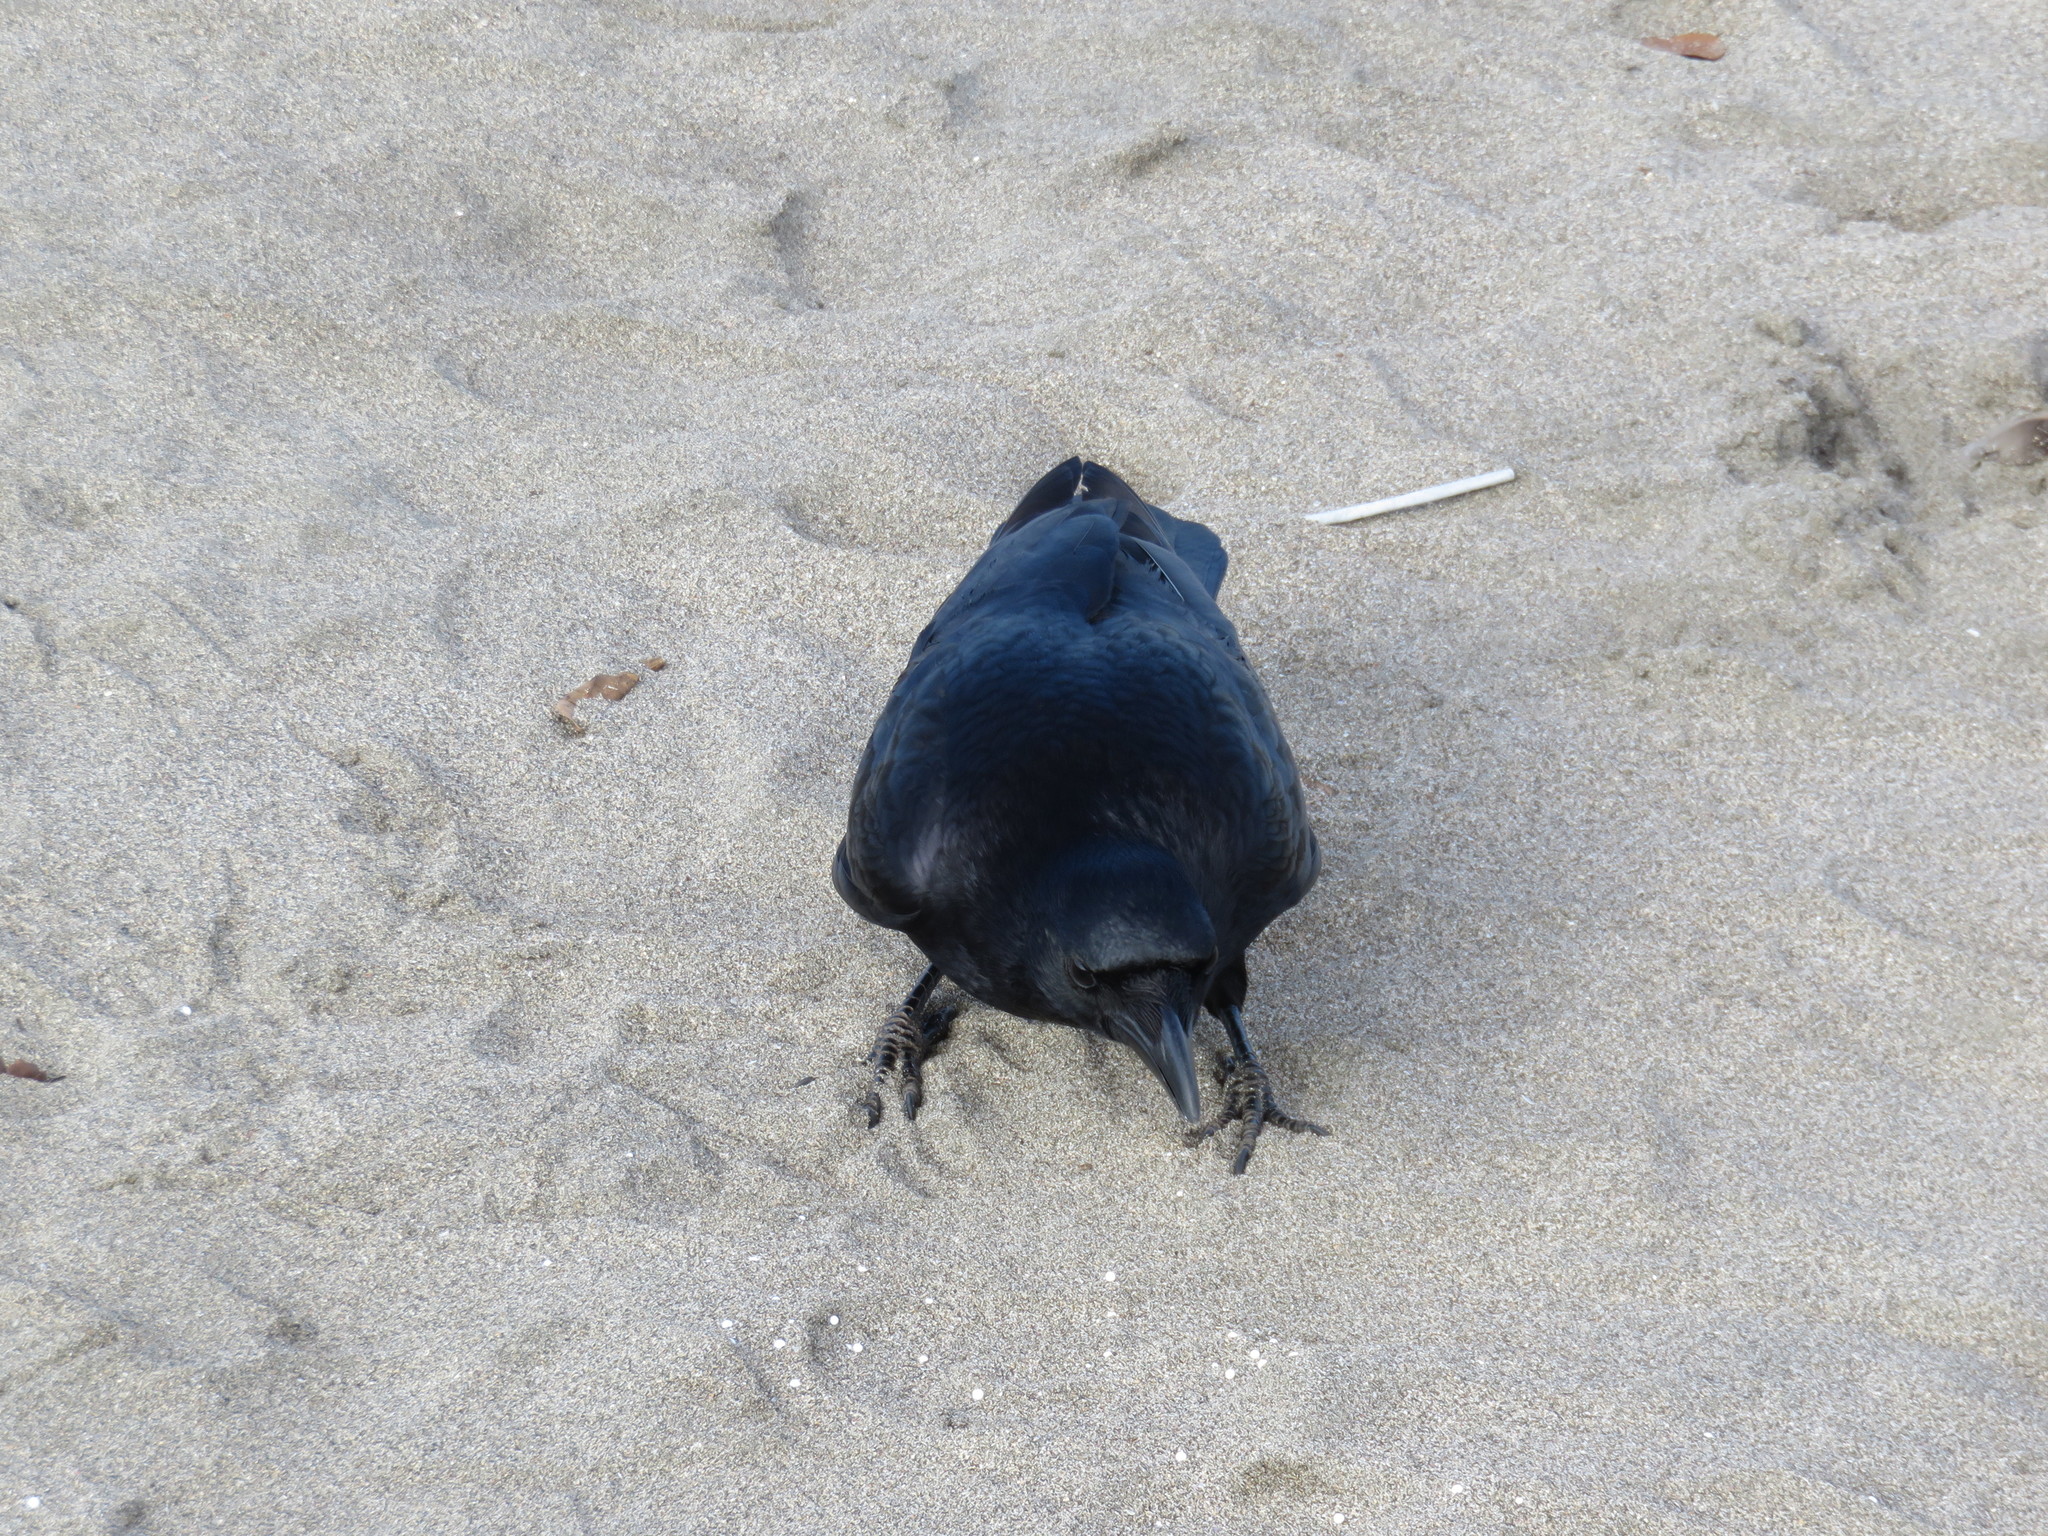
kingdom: Animalia
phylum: Chordata
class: Aves
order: Passeriformes
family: Corvidae
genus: Corvus
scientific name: Corvus corone
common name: Carrion crow
